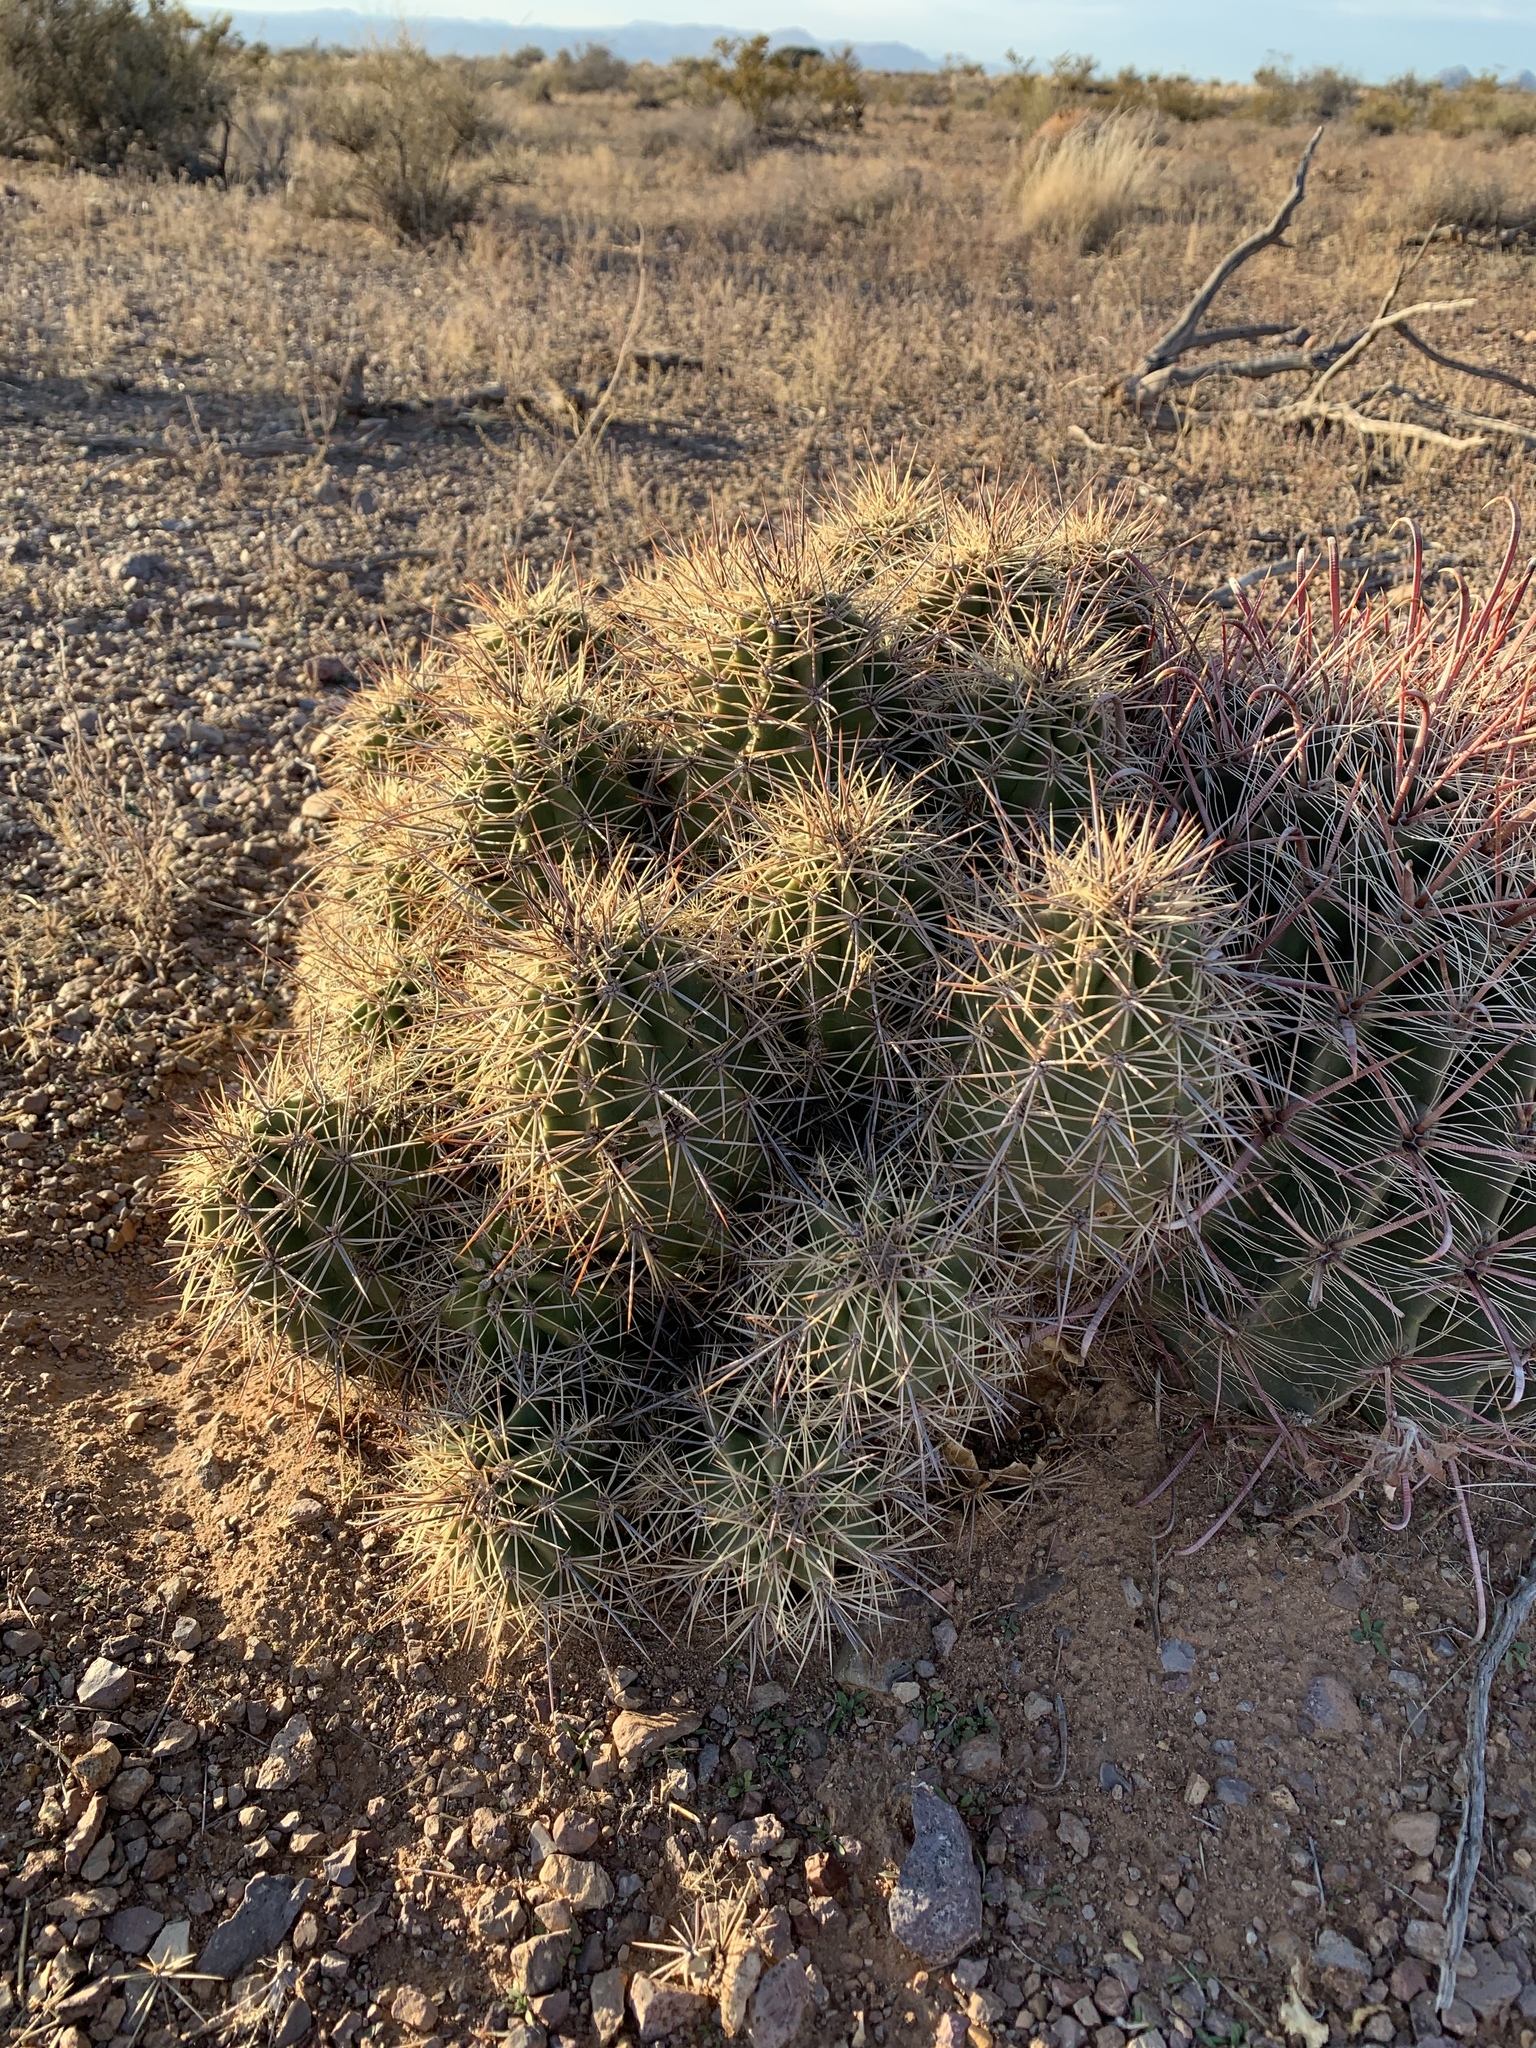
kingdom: Plantae
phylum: Tracheophyta
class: Magnoliopsida
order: Caryophyllales
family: Cactaceae
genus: Echinocereus
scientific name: Echinocereus coccineus
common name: Scarlet hedgehog cactus
